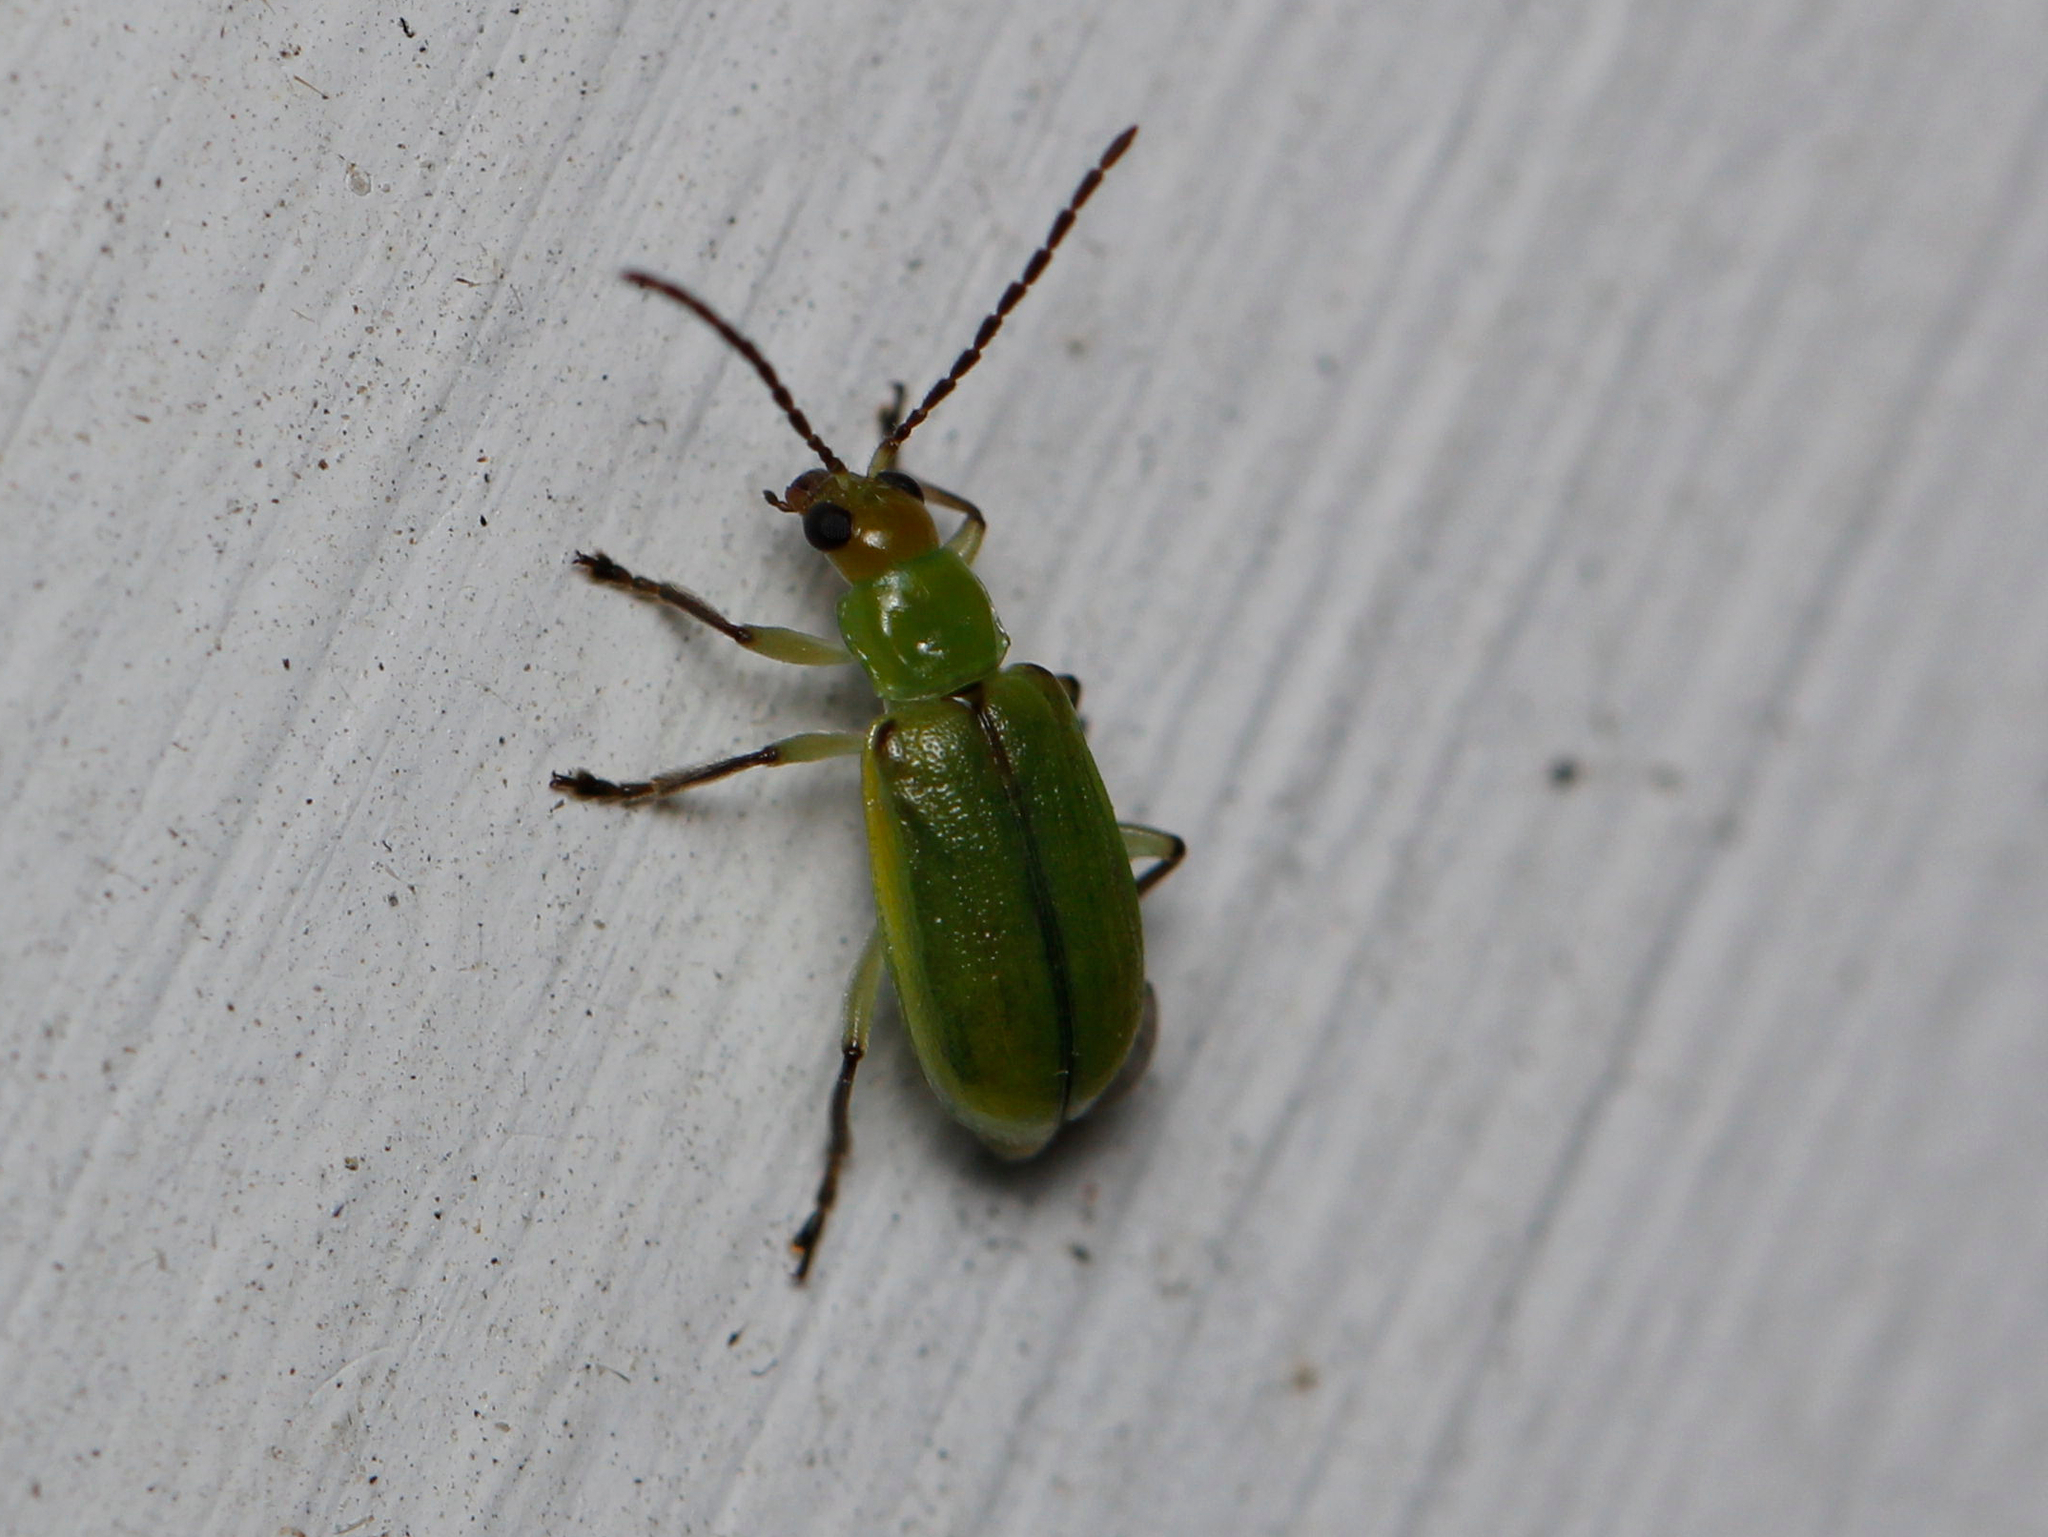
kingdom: Animalia
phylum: Arthropoda
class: Insecta
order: Coleoptera
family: Chrysomelidae
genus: Diabrotica
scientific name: Diabrotica barberi
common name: Northern corn rootworm
